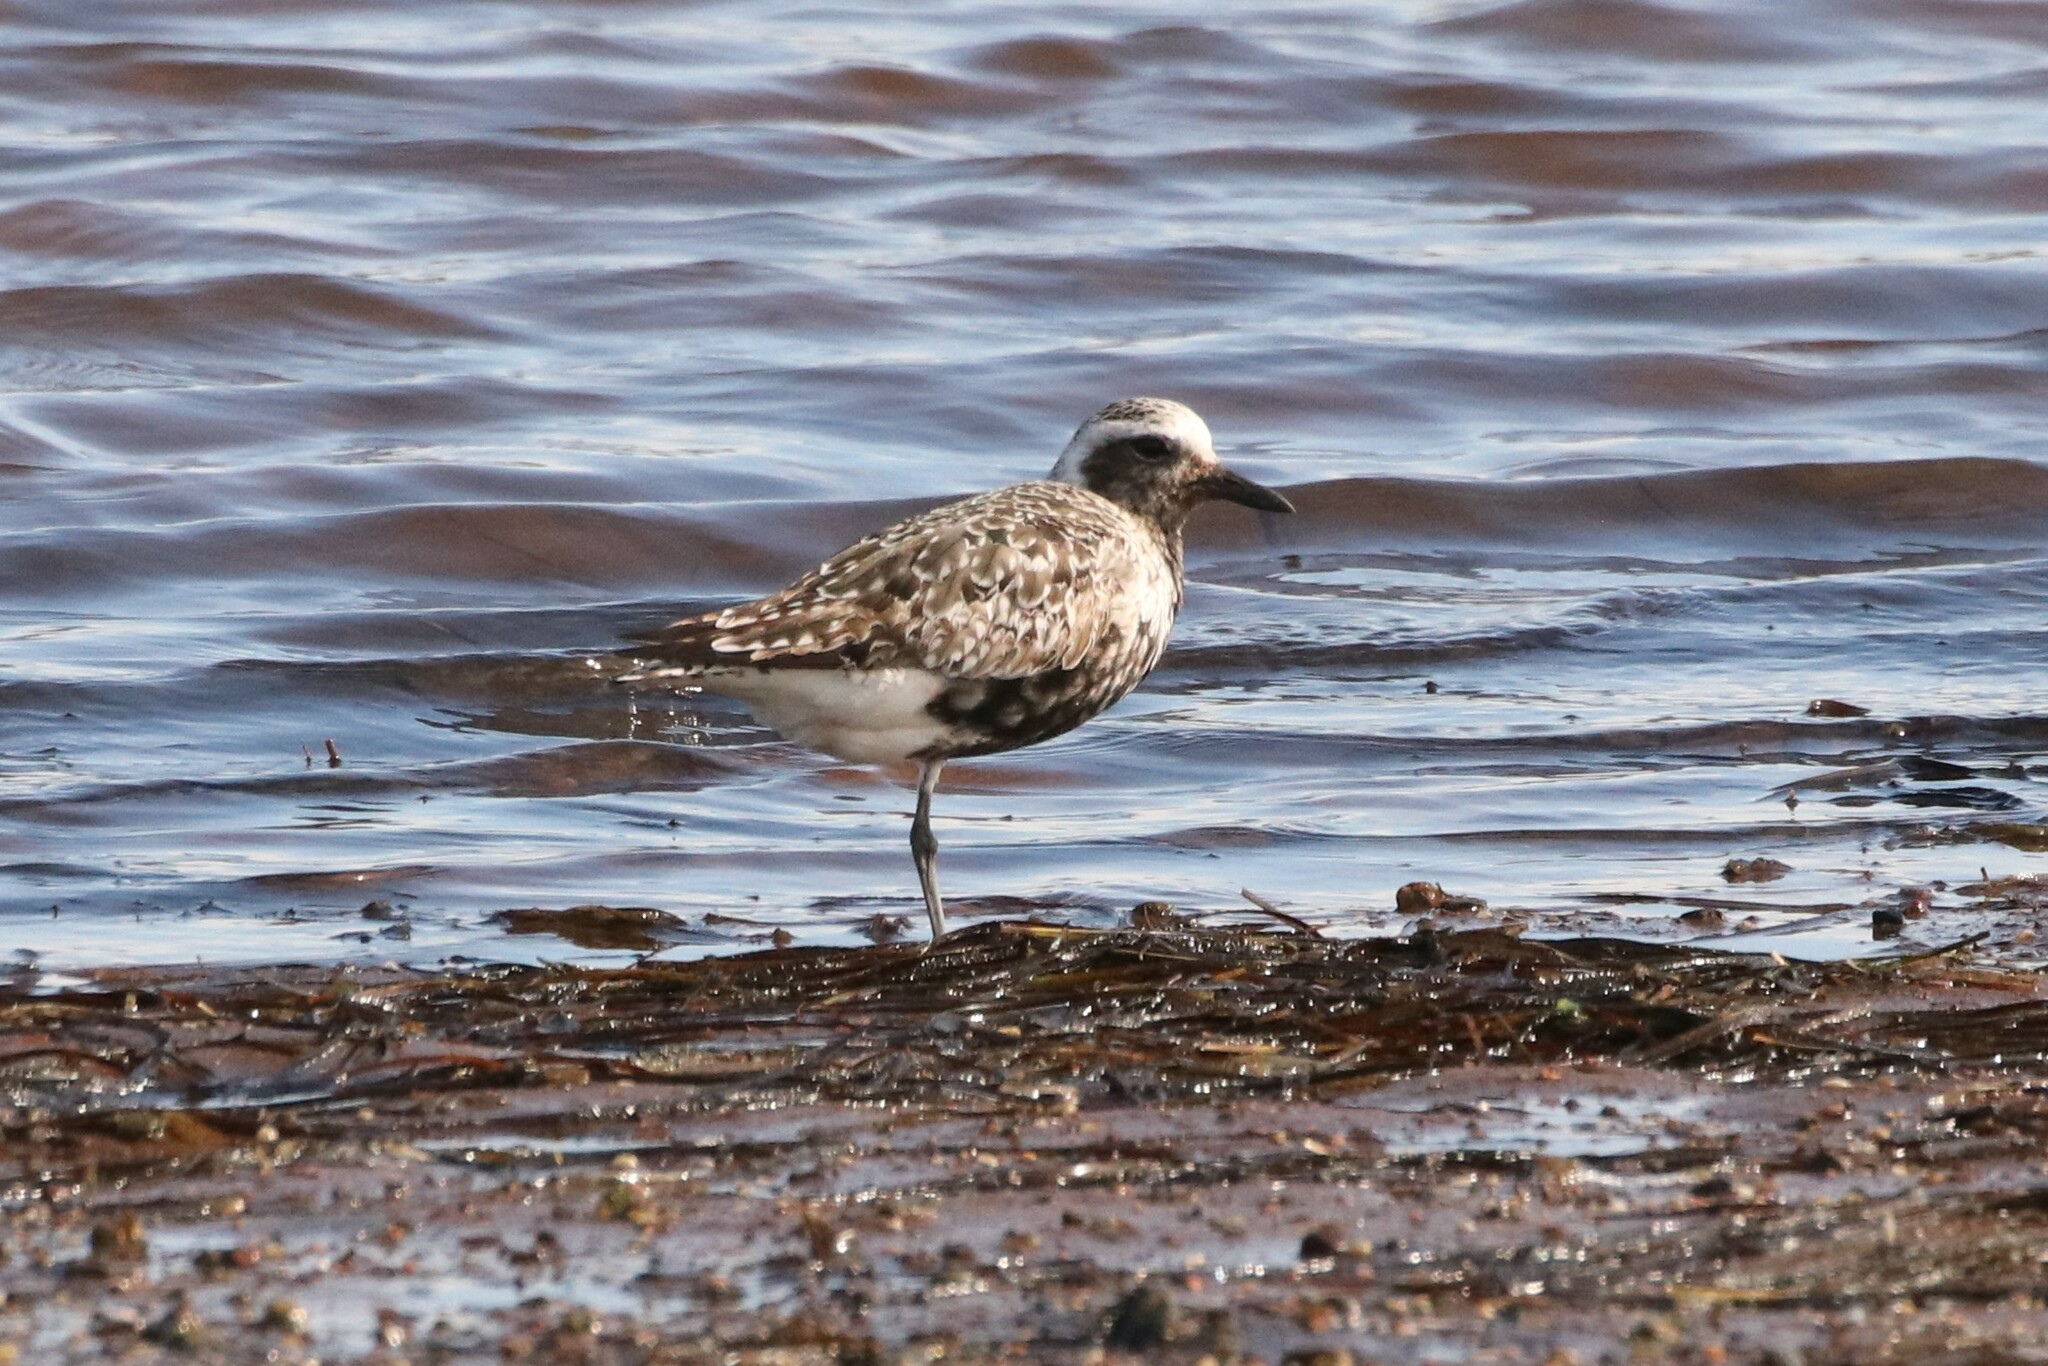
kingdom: Animalia
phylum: Chordata
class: Aves
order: Charadriiformes
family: Charadriidae
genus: Pluvialis
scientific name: Pluvialis squatarola
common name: Grey plover
